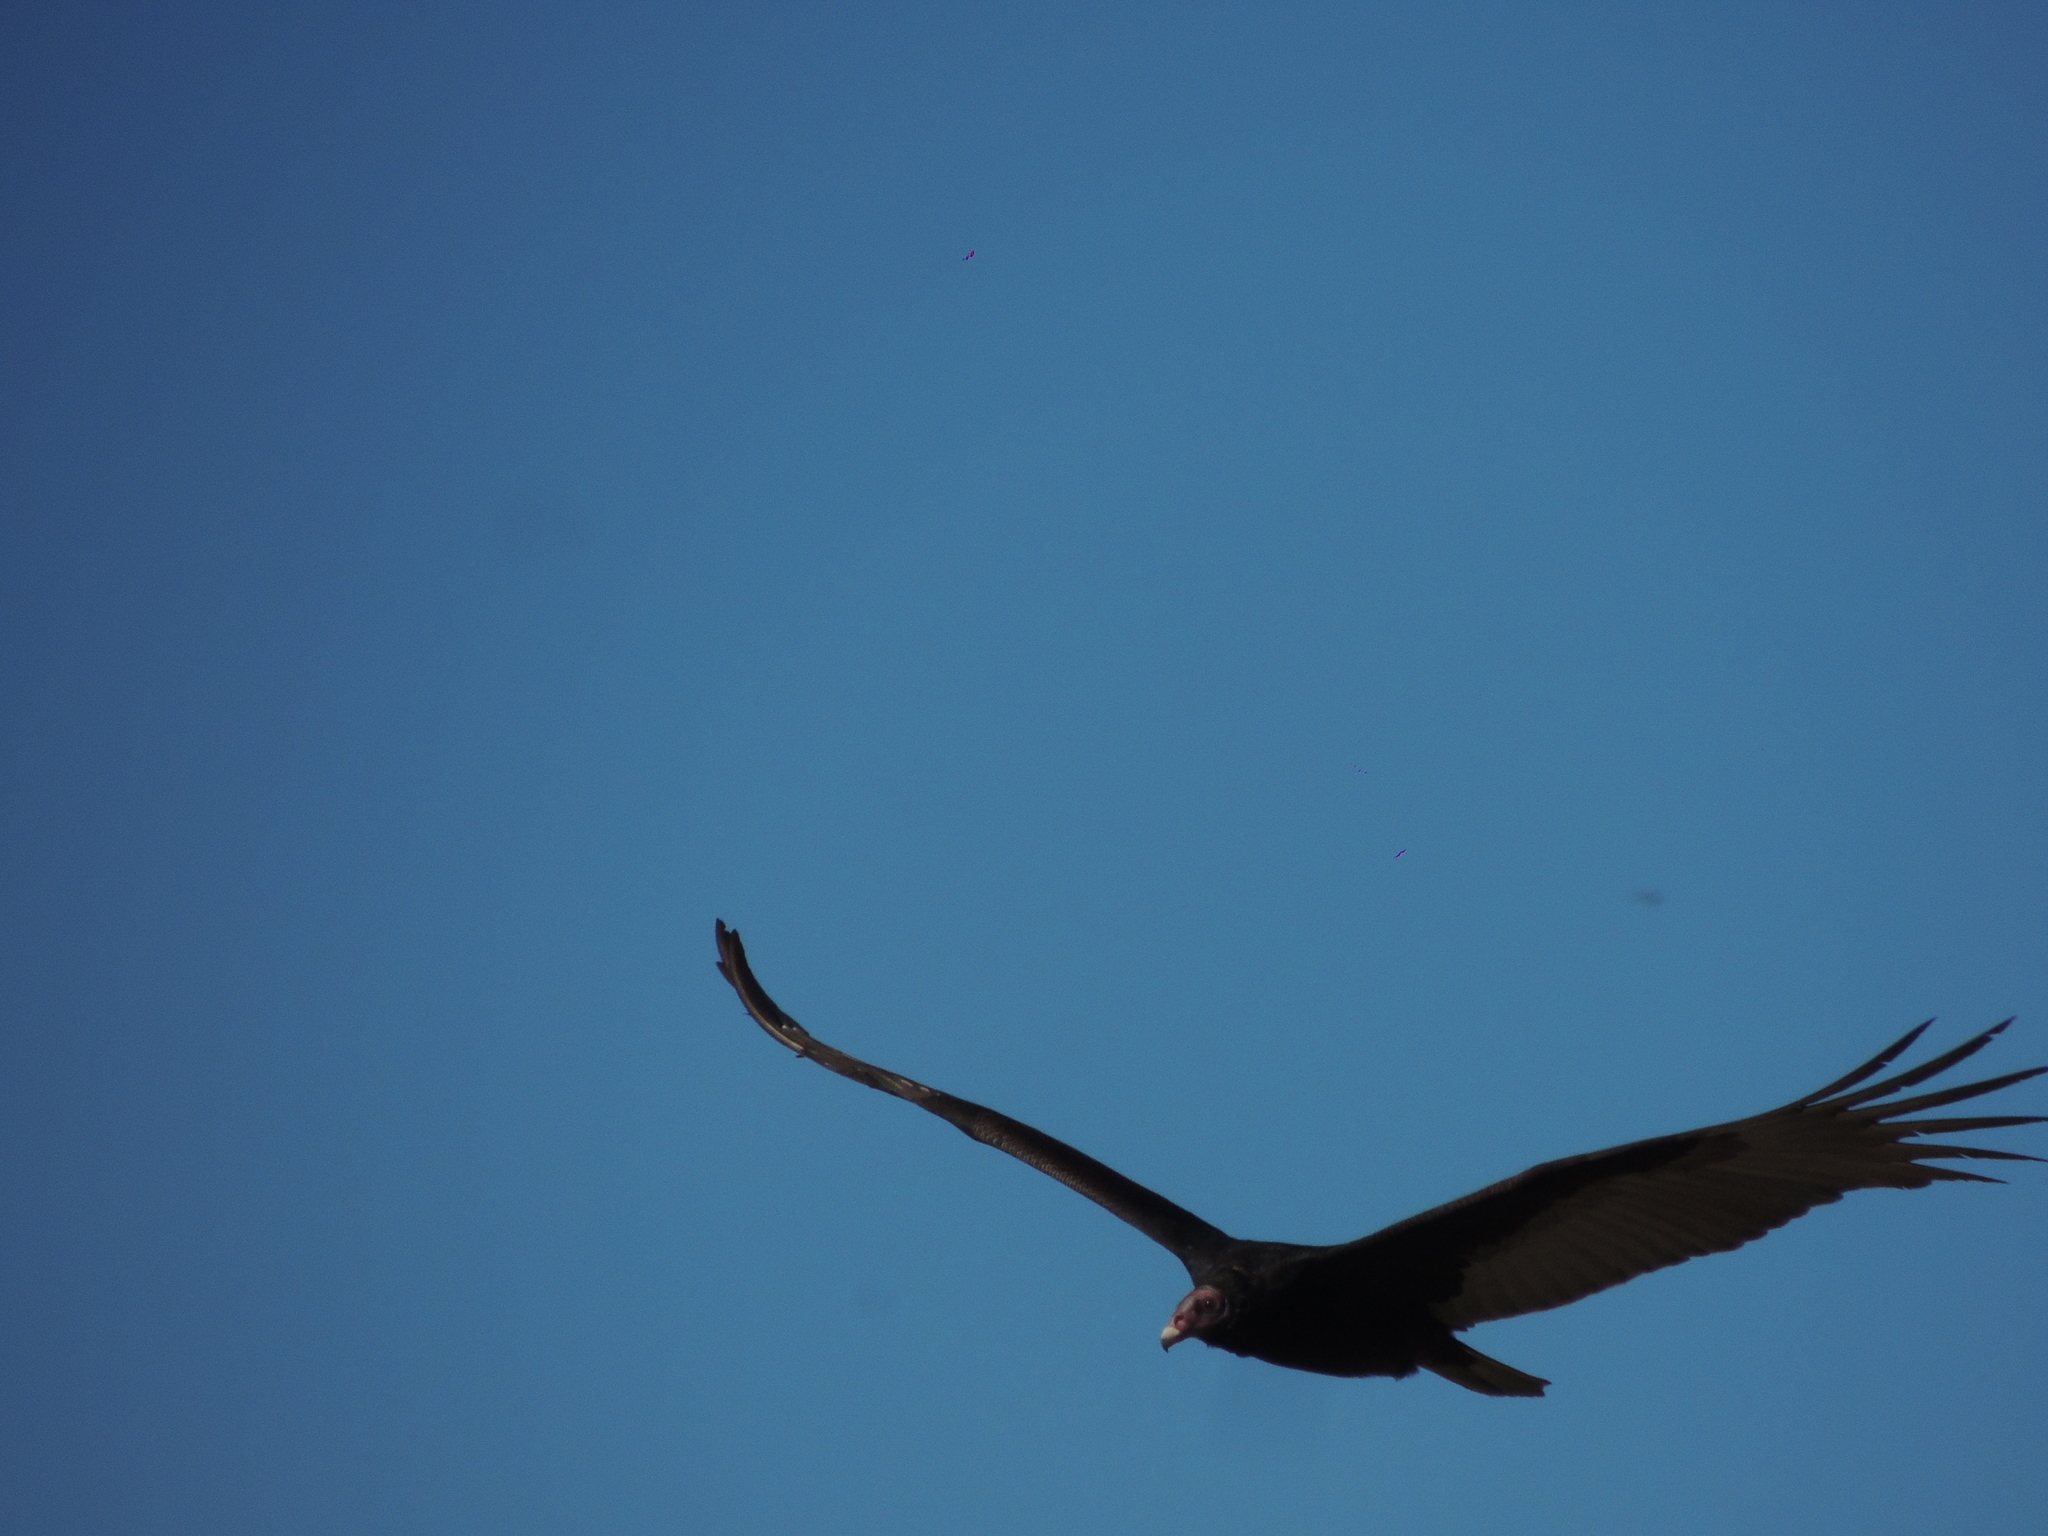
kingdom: Animalia
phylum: Chordata
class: Aves
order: Accipitriformes
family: Cathartidae
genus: Cathartes
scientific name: Cathartes aura
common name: Turkey vulture
